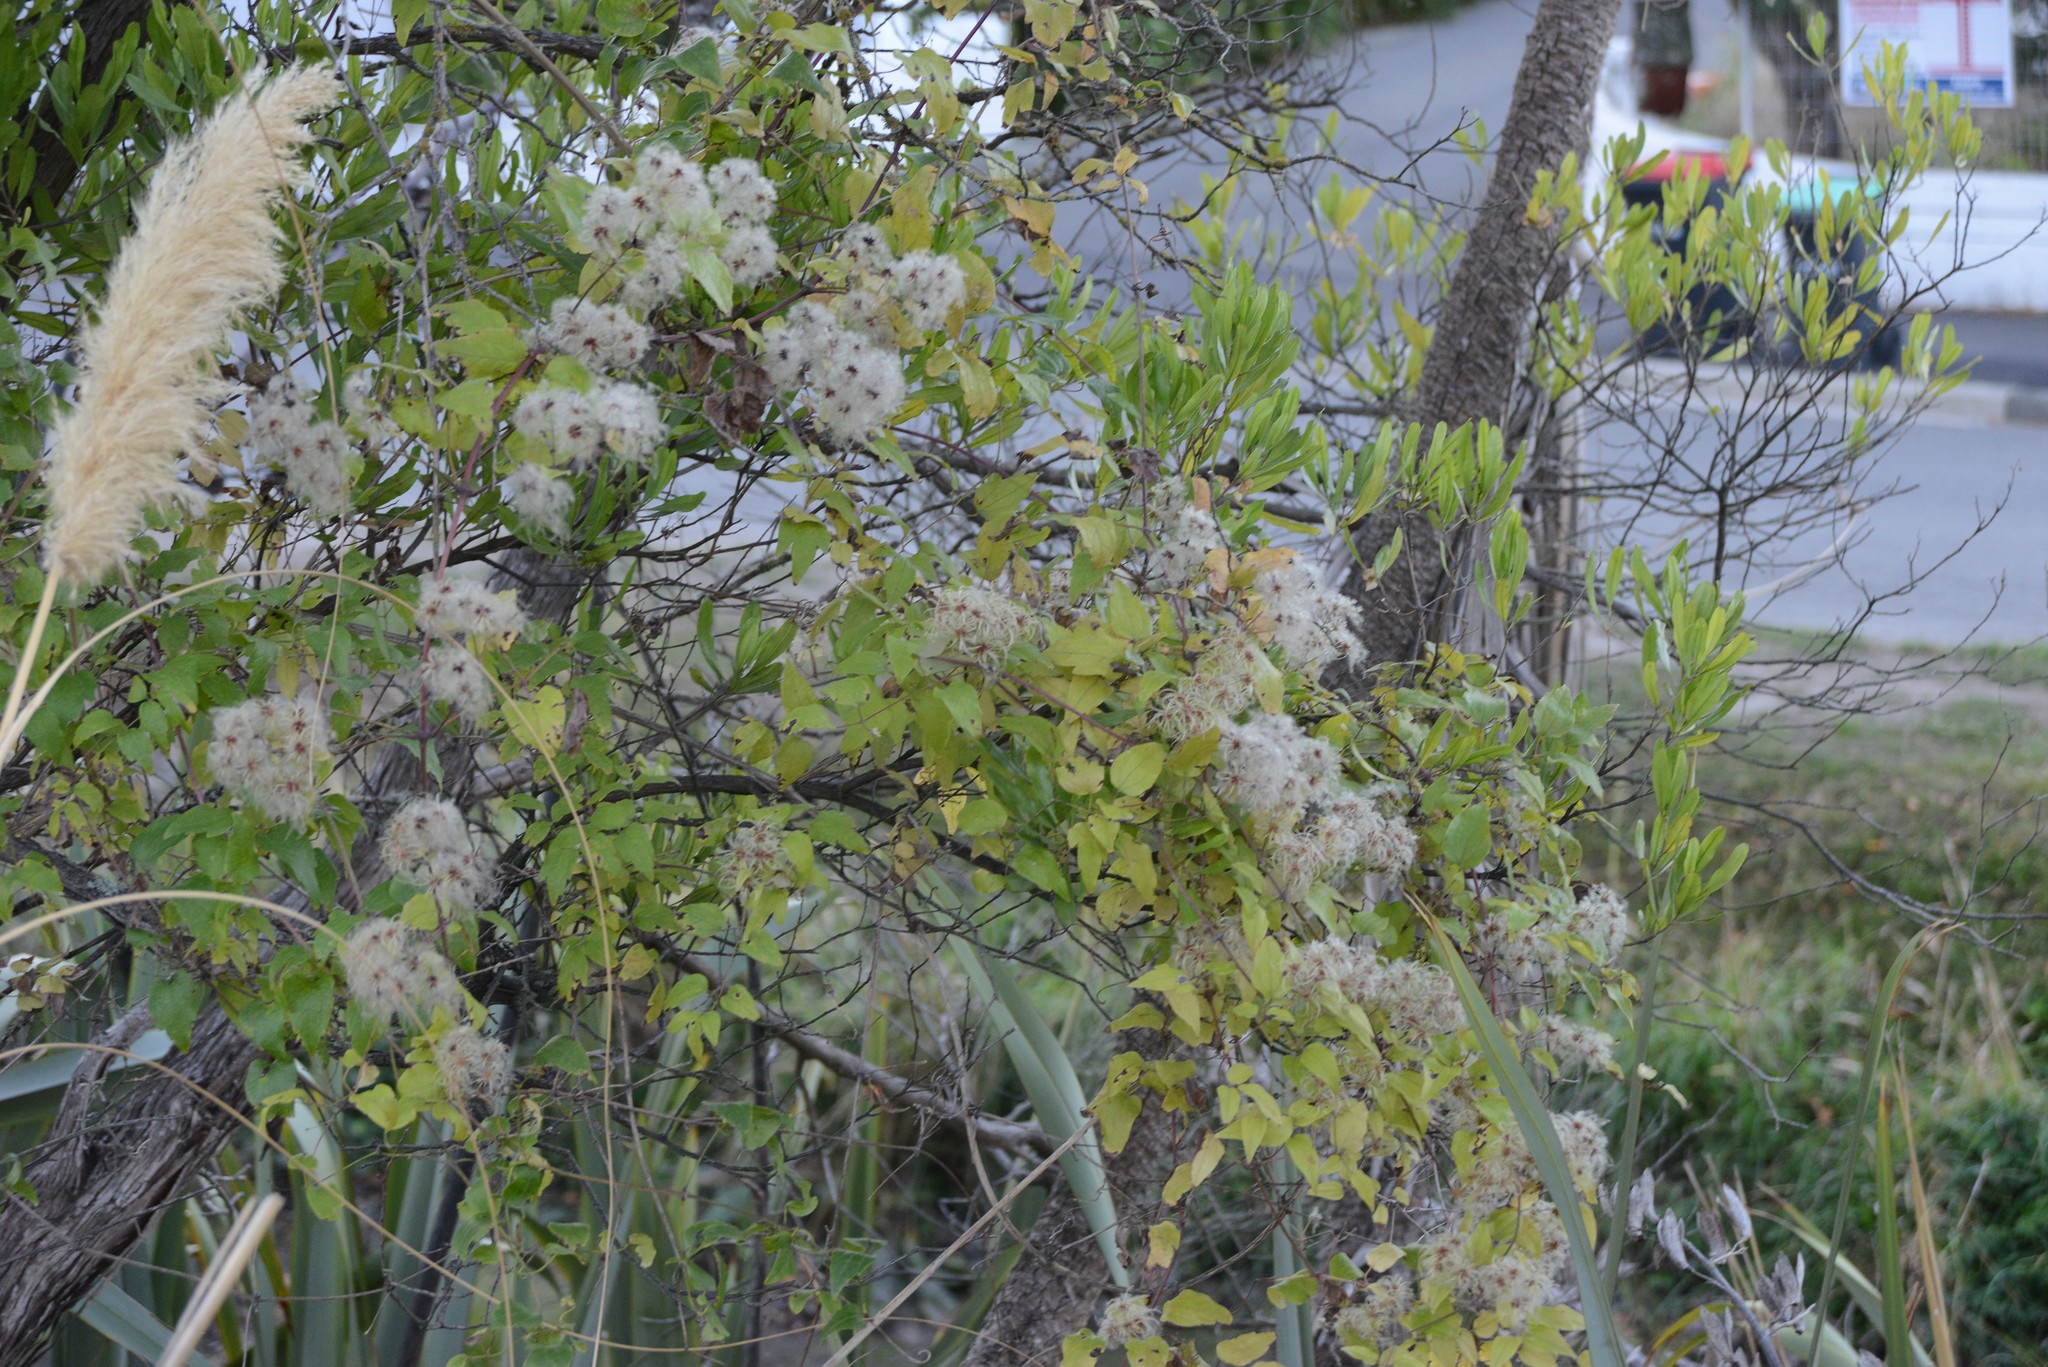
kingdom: Plantae
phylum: Tracheophyta
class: Magnoliopsida
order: Ranunculales
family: Ranunculaceae
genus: Clematis
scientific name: Clematis vitalba
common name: Evergreen clematis
